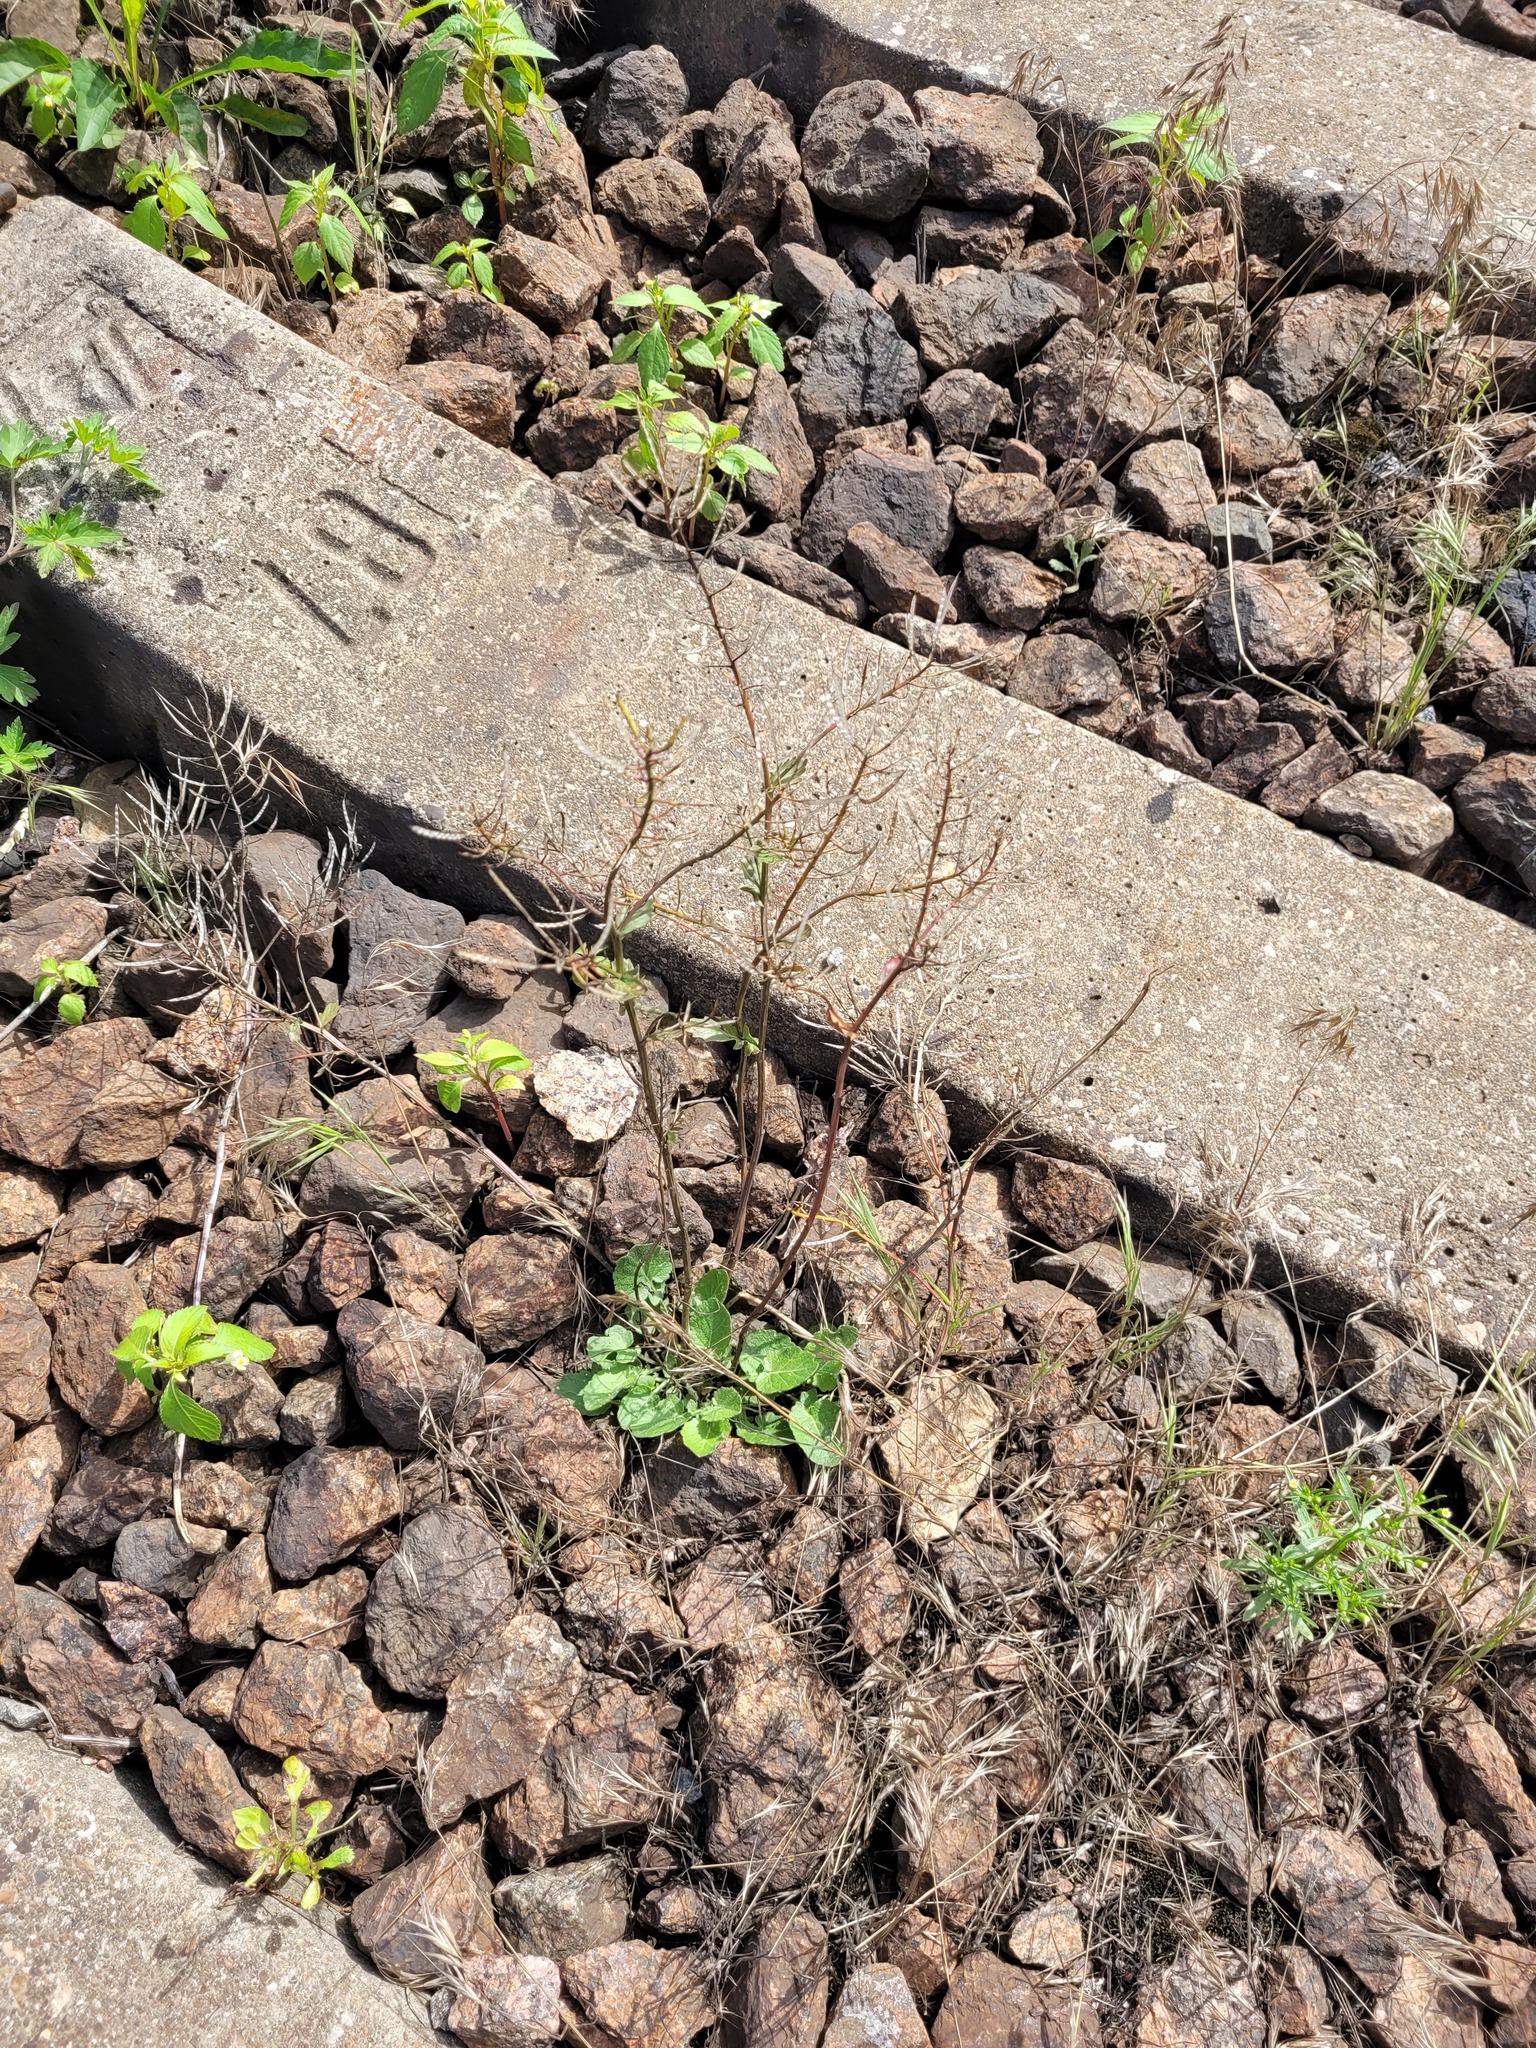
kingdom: Plantae
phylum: Tracheophyta
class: Magnoliopsida
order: Brassicales
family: Brassicaceae
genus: Barbarea
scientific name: Barbarea vulgaris
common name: Cressy-greens
